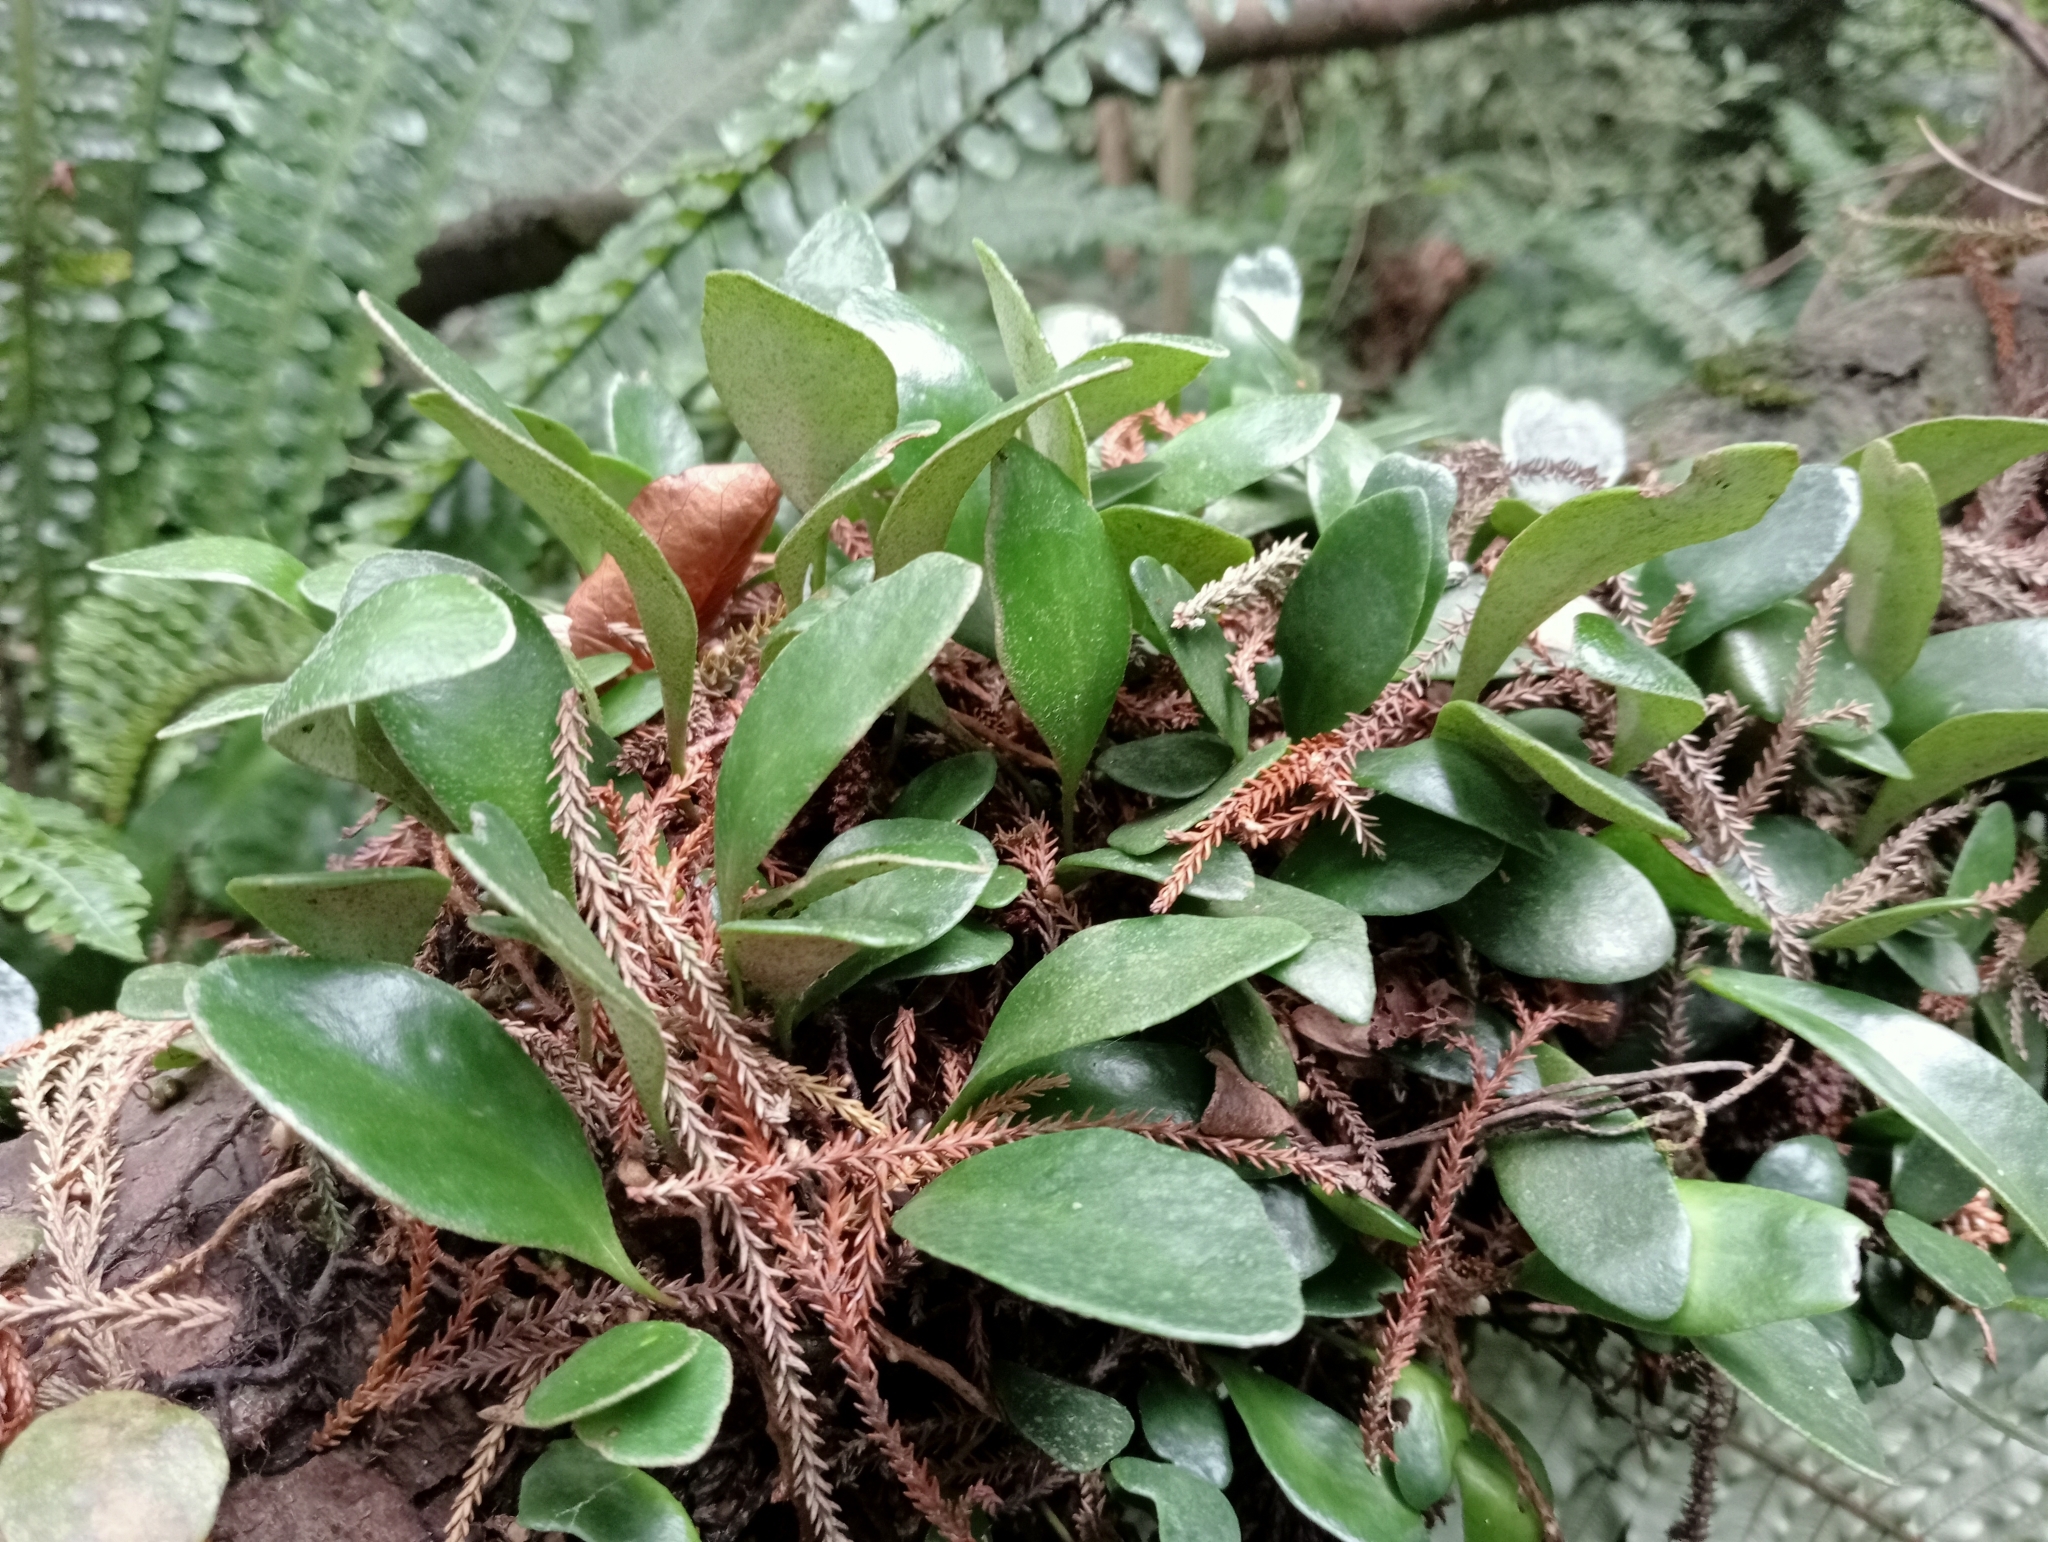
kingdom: Plantae
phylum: Tracheophyta
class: Polypodiopsida
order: Polypodiales
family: Polypodiaceae
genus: Pyrrosia
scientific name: Pyrrosia eleagnifolia
